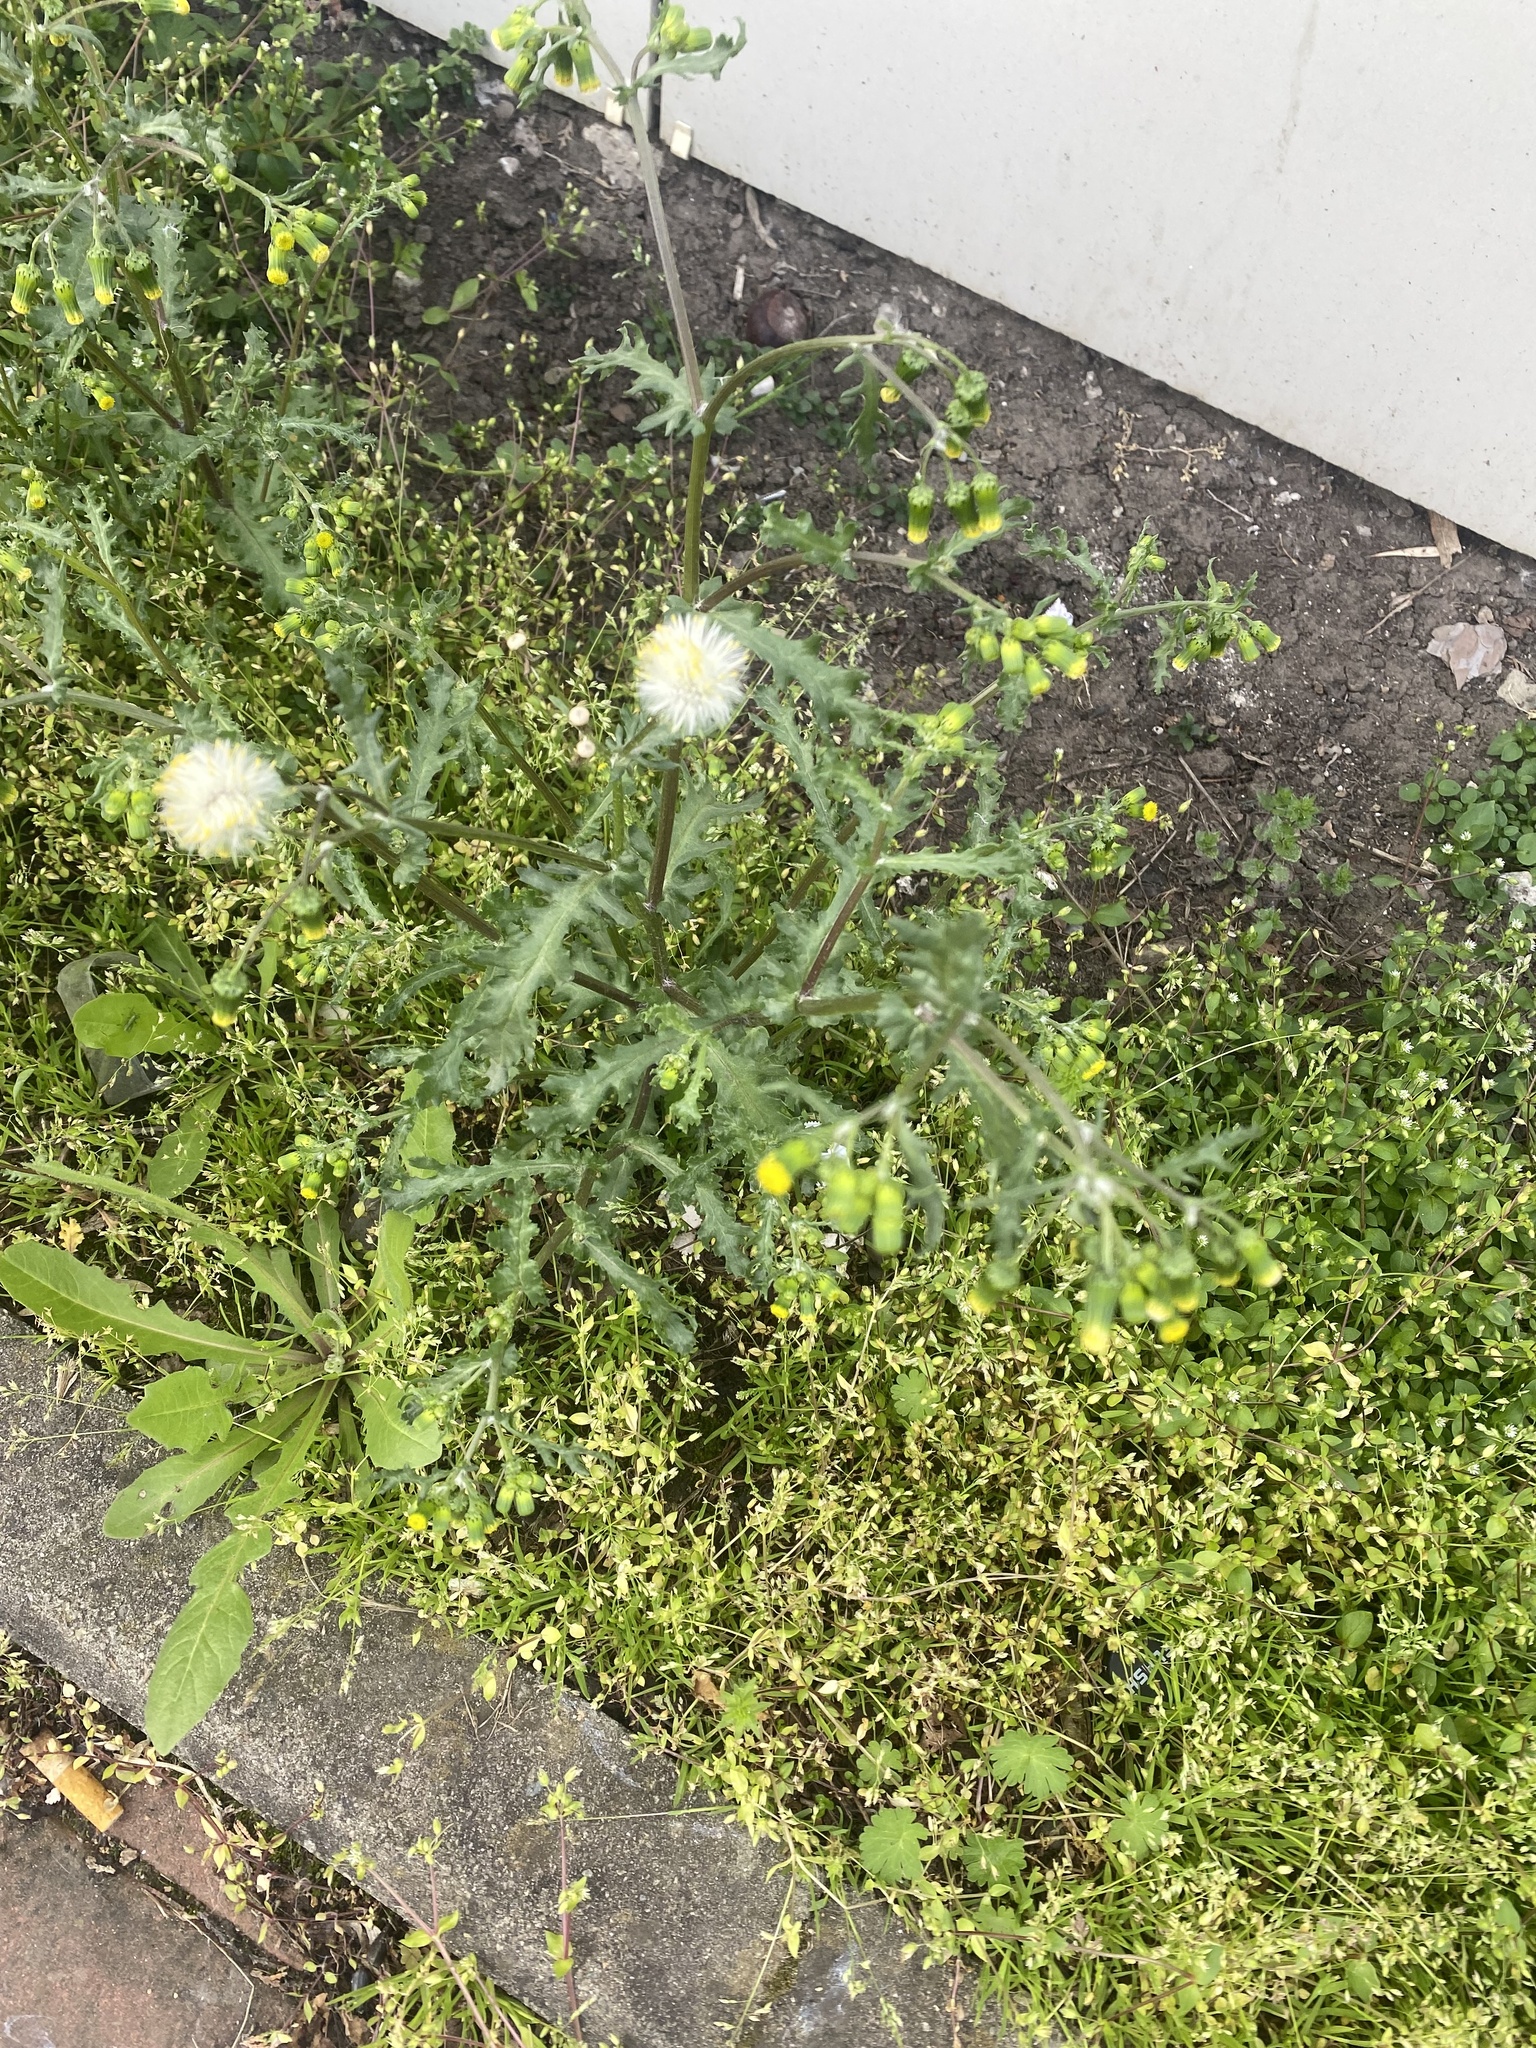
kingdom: Plantae
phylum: Tracheophyta
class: Magnoliopsida
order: Asterales
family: Asteraceae
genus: Senecio
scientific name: Senecio vulgaris
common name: Old-man-in-the-spring
